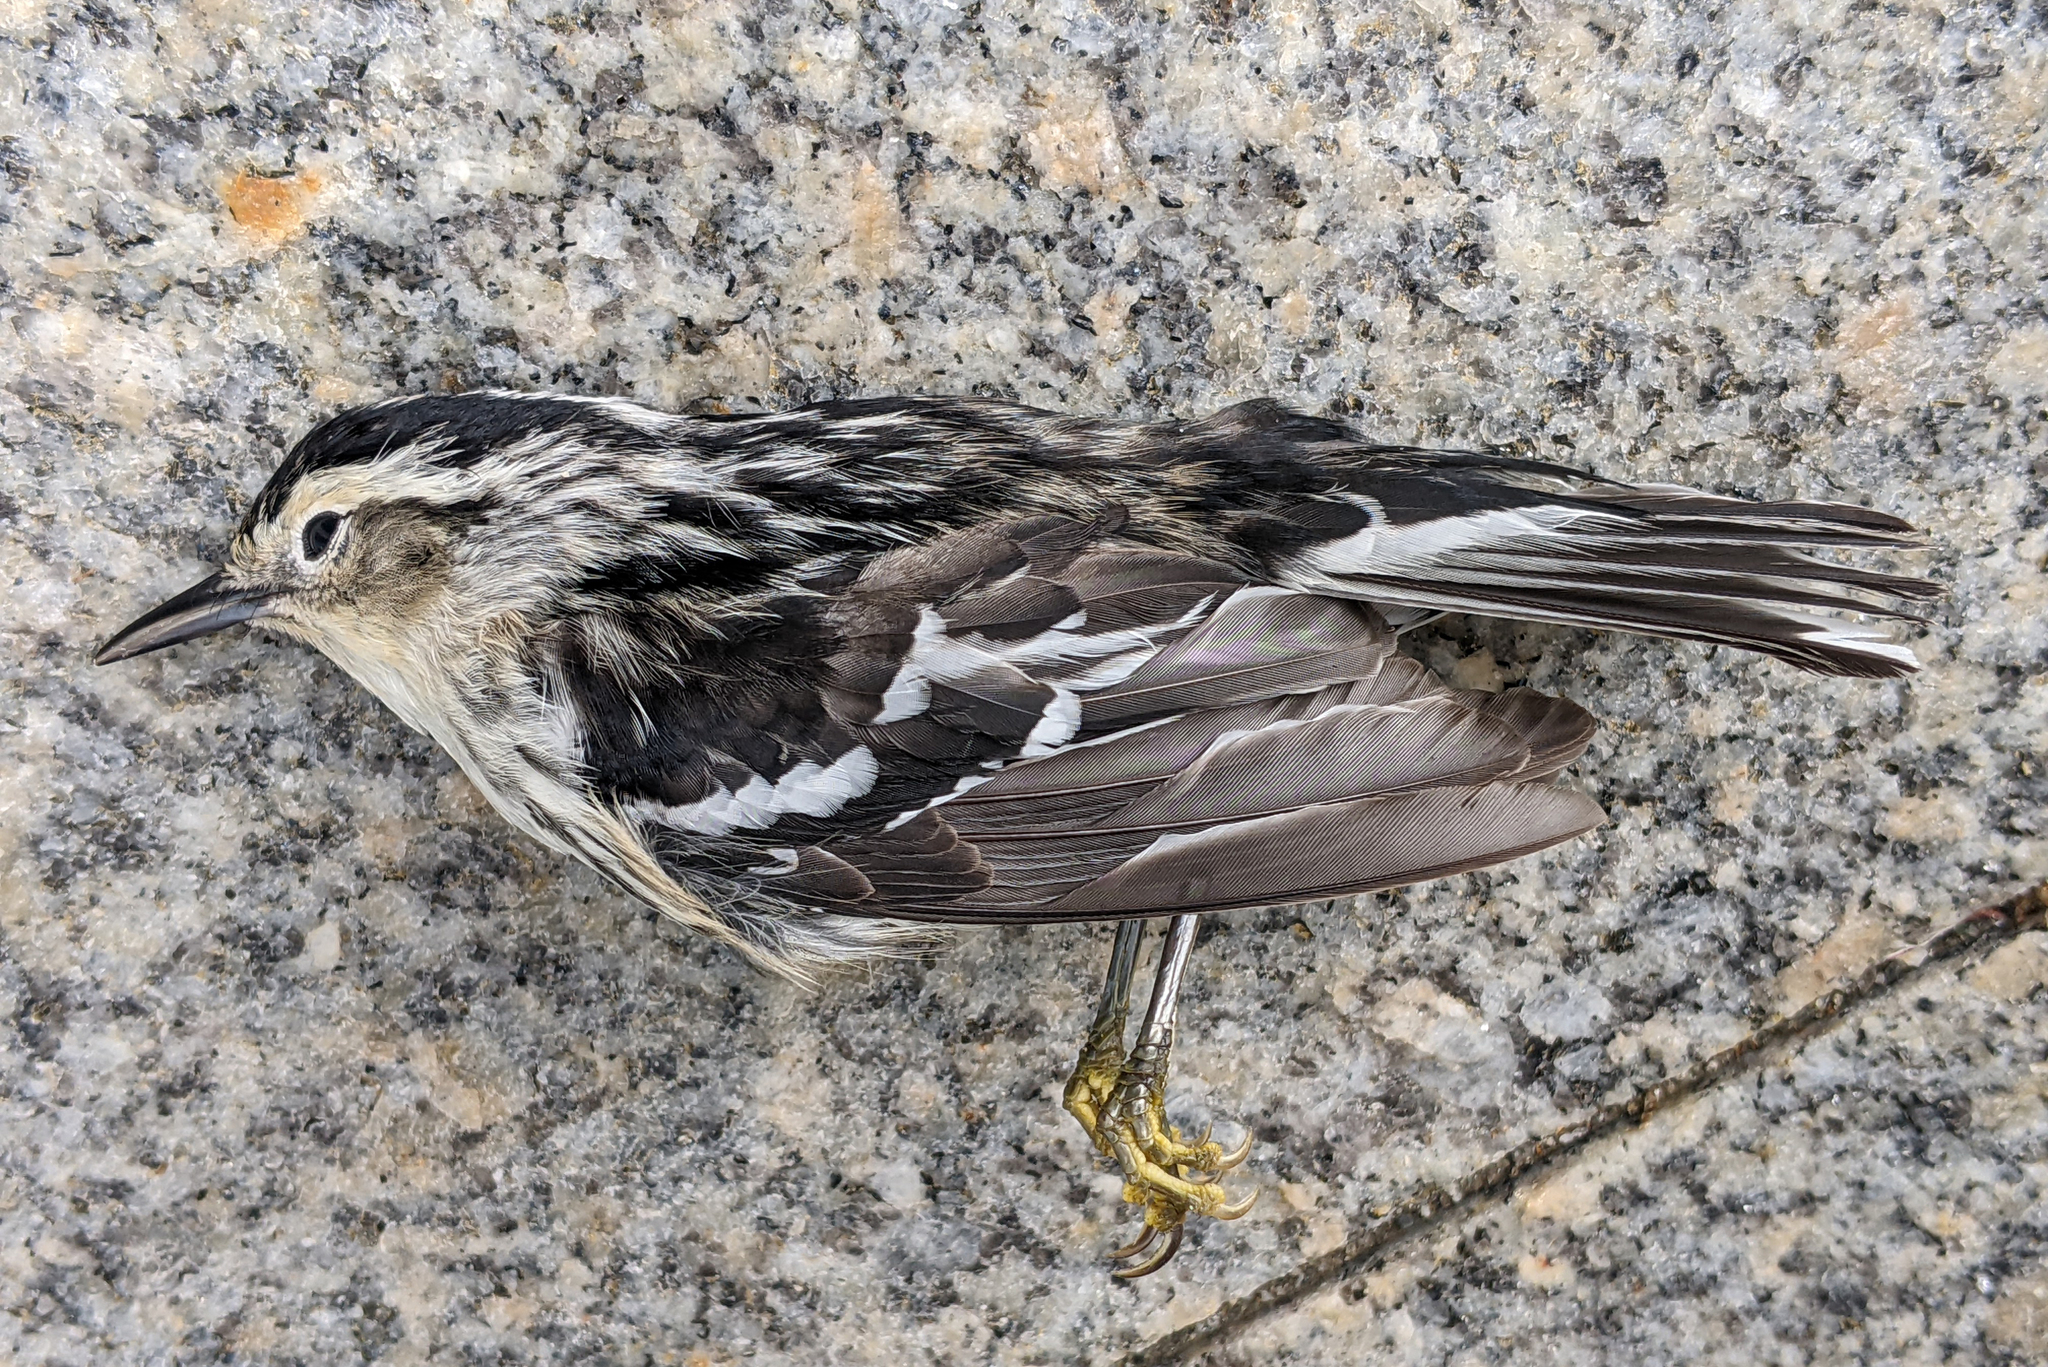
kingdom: Animalia
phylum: Chordata
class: Aves
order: Passeriformes
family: Parulidae
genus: Mniotilta
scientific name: Mniotilta varia
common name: Black-and-white warbler
